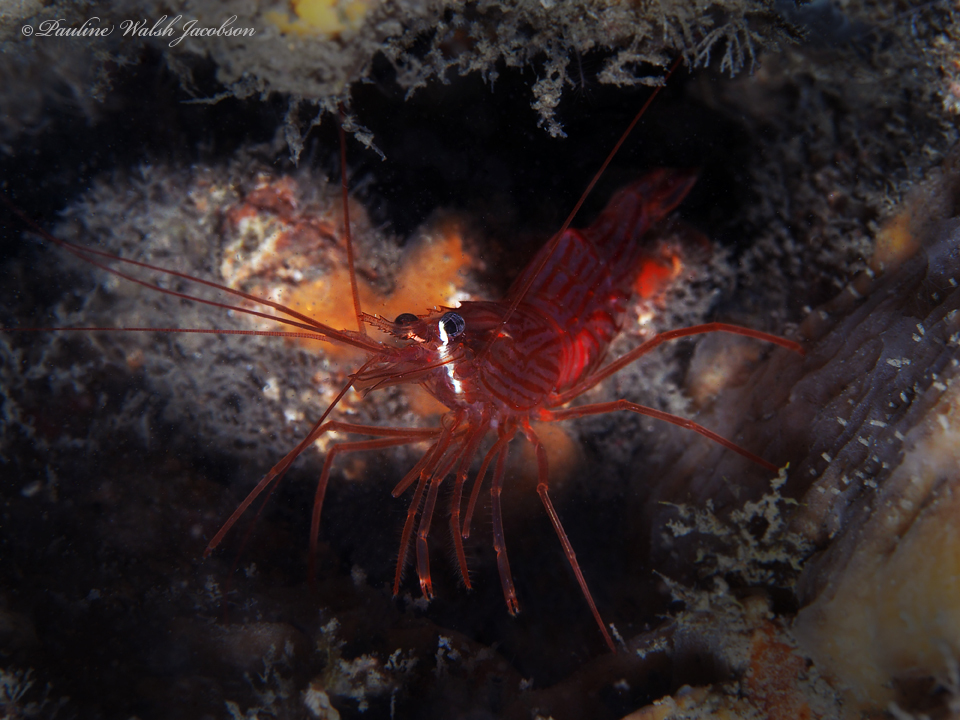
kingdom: Animalia
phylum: Arthropoda
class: Malacostraca
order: Decapoda
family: Lysmatidae
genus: Lysmata
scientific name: Lysmata rafa
